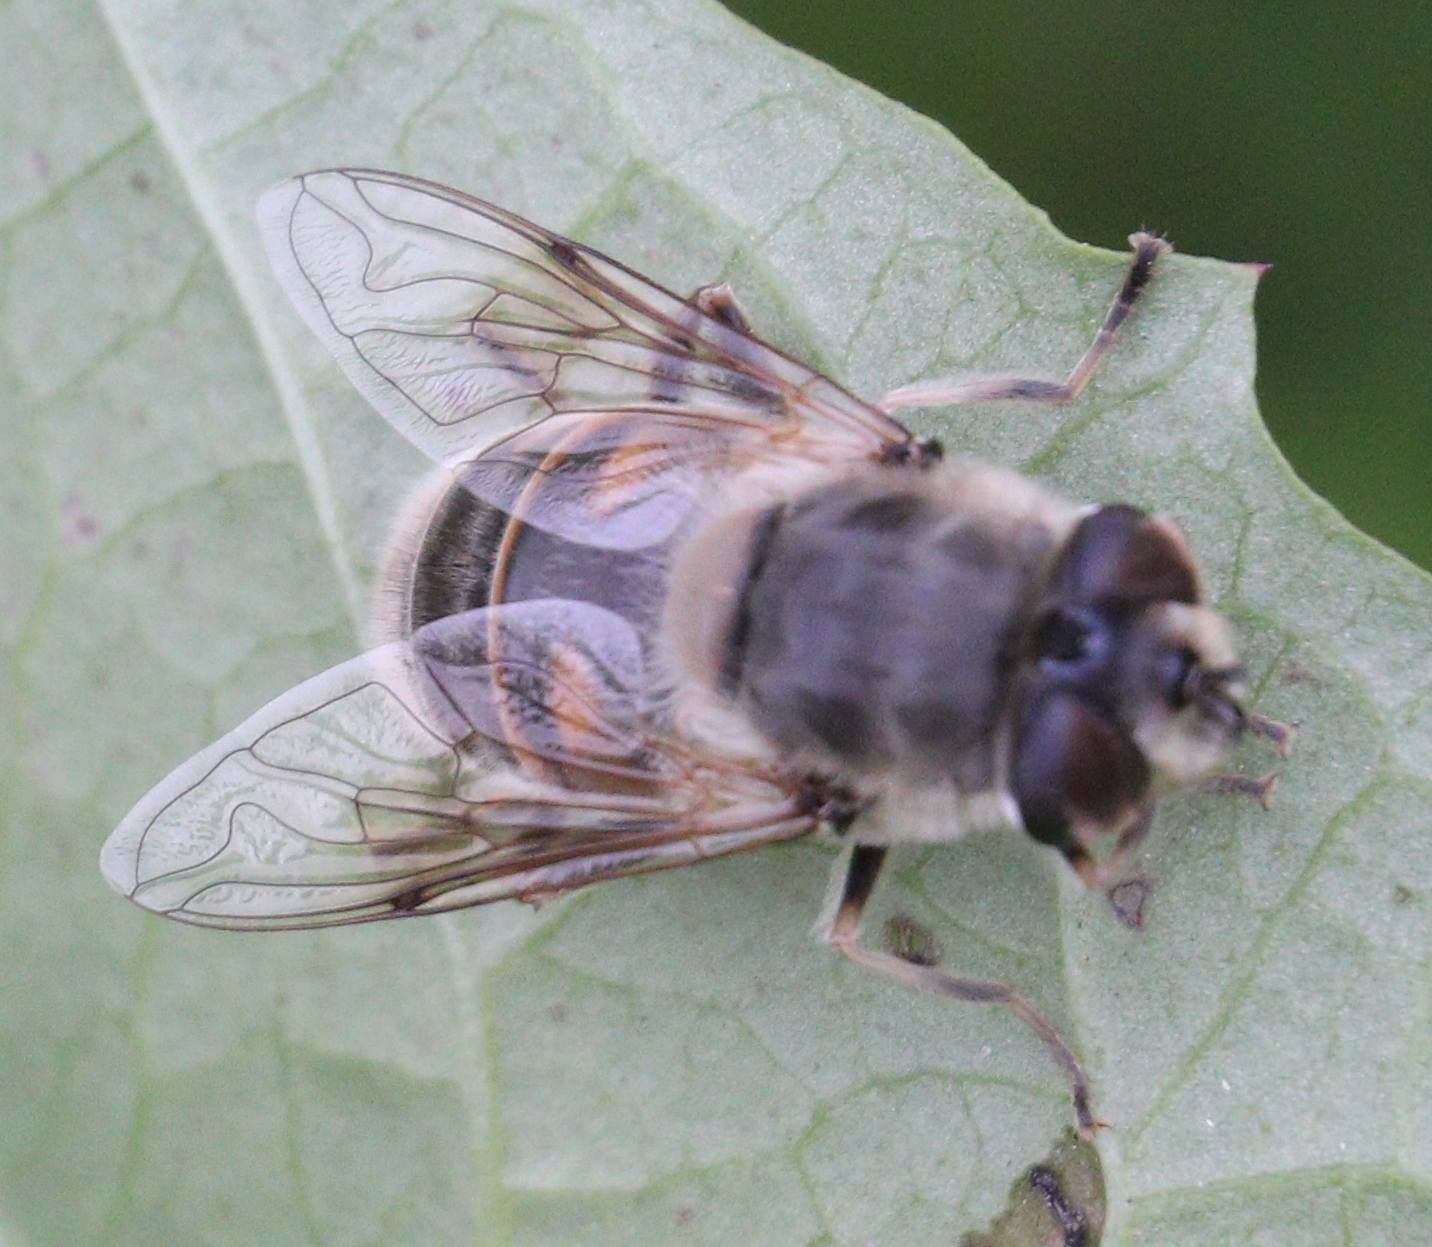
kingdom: Animalia
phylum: Arthropoda
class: Insecta
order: Diptera
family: Syrphidae
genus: Eristalis
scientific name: Eristalis tenax
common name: Drone fly
